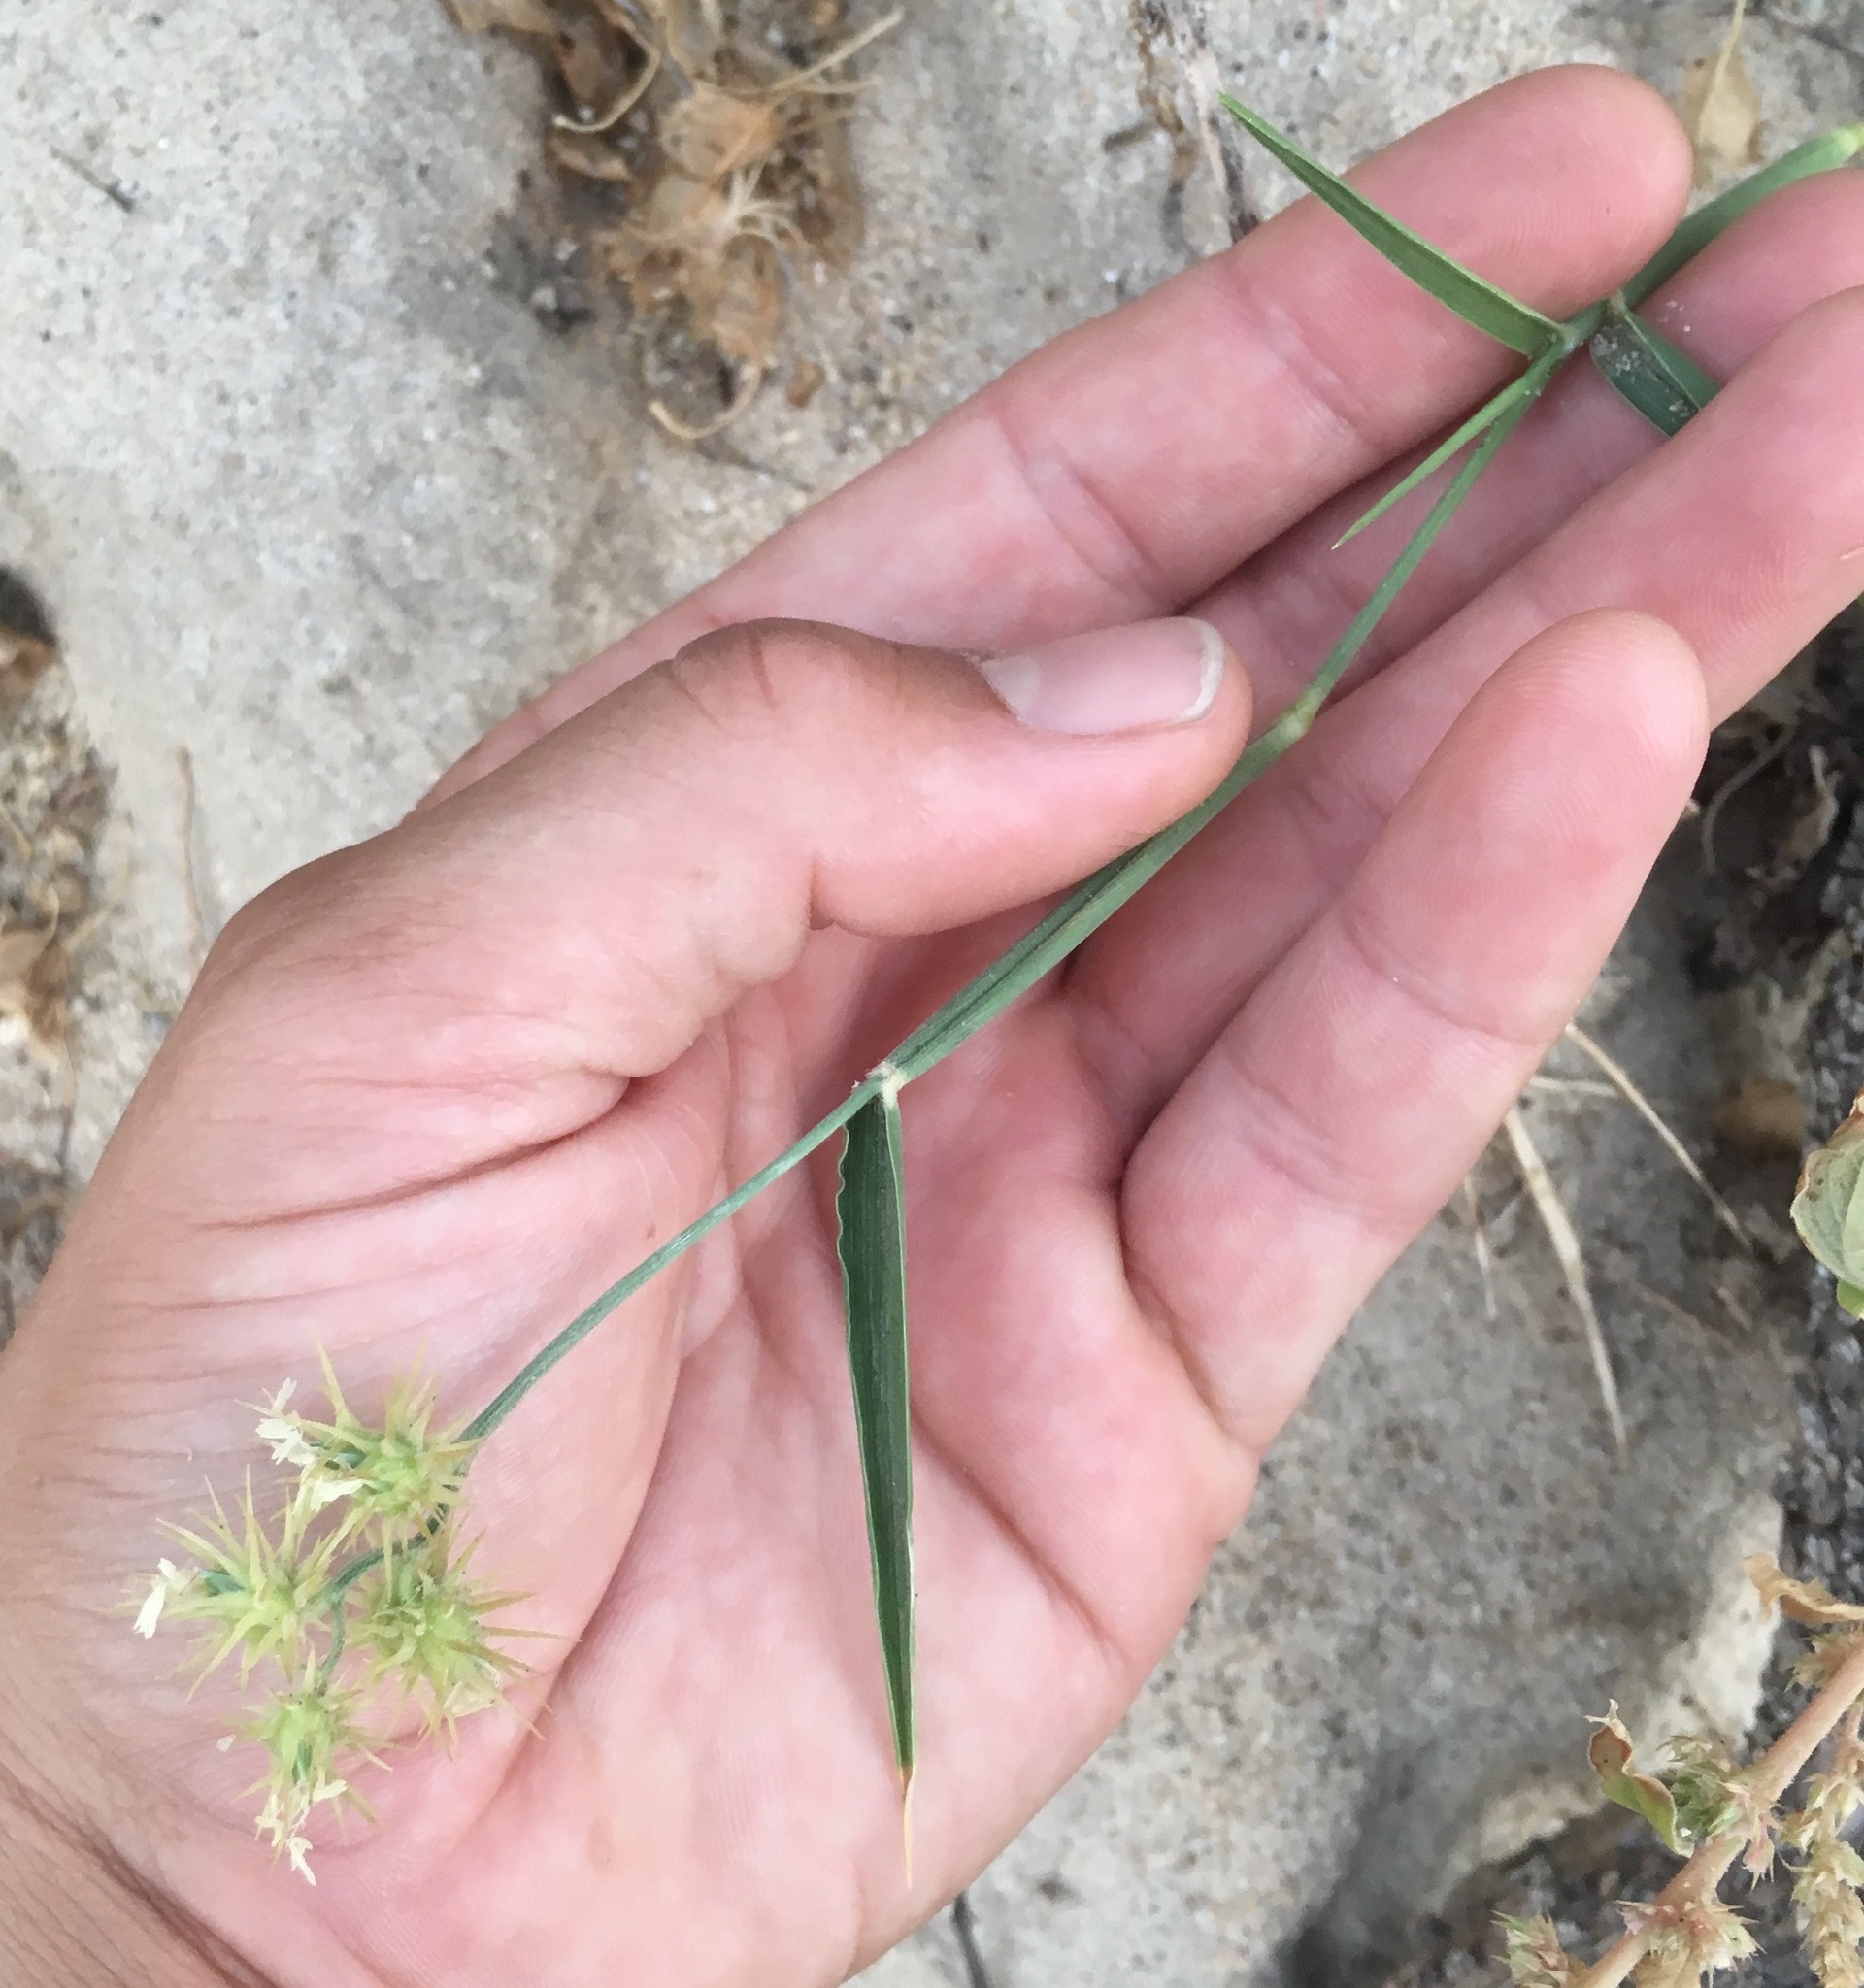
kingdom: Plantae
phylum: Tracheophyta
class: Liliopsida
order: Poales
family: Poaceae
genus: Cenchrus
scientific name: Cenchrus palmeri
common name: Giant sandbur
